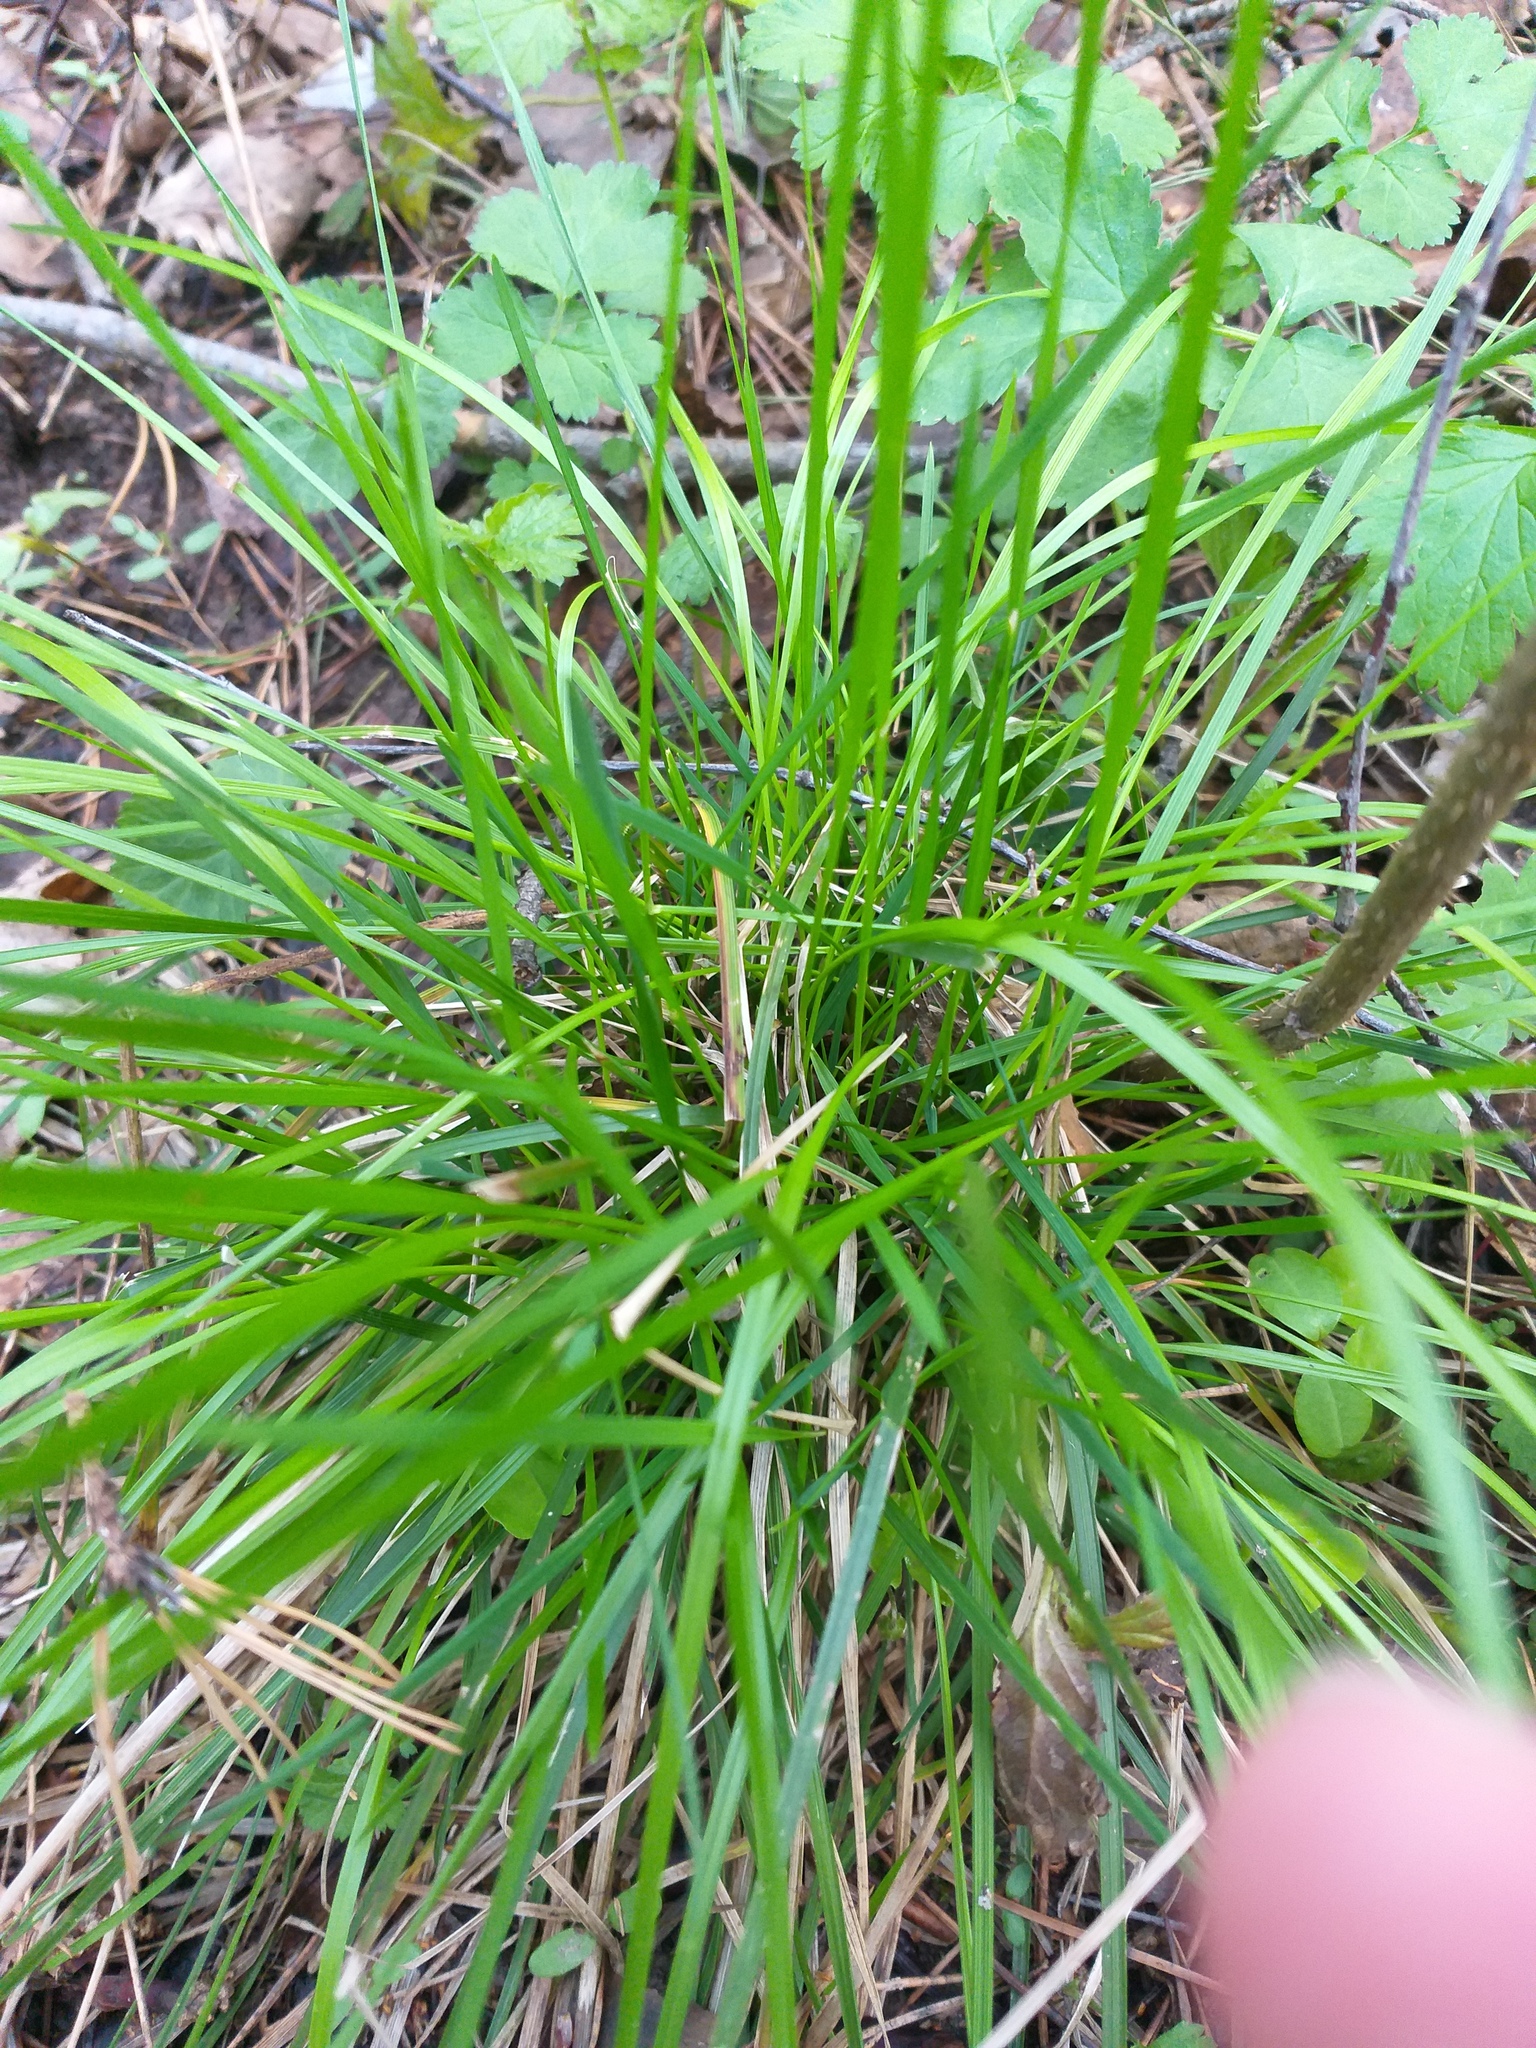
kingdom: Plantae
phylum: Tracheophyta
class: Liliopsida
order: Poales
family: Poaceae
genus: Deschampsia
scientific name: Deschampsia cespitosa
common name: Tufted hair-grass
